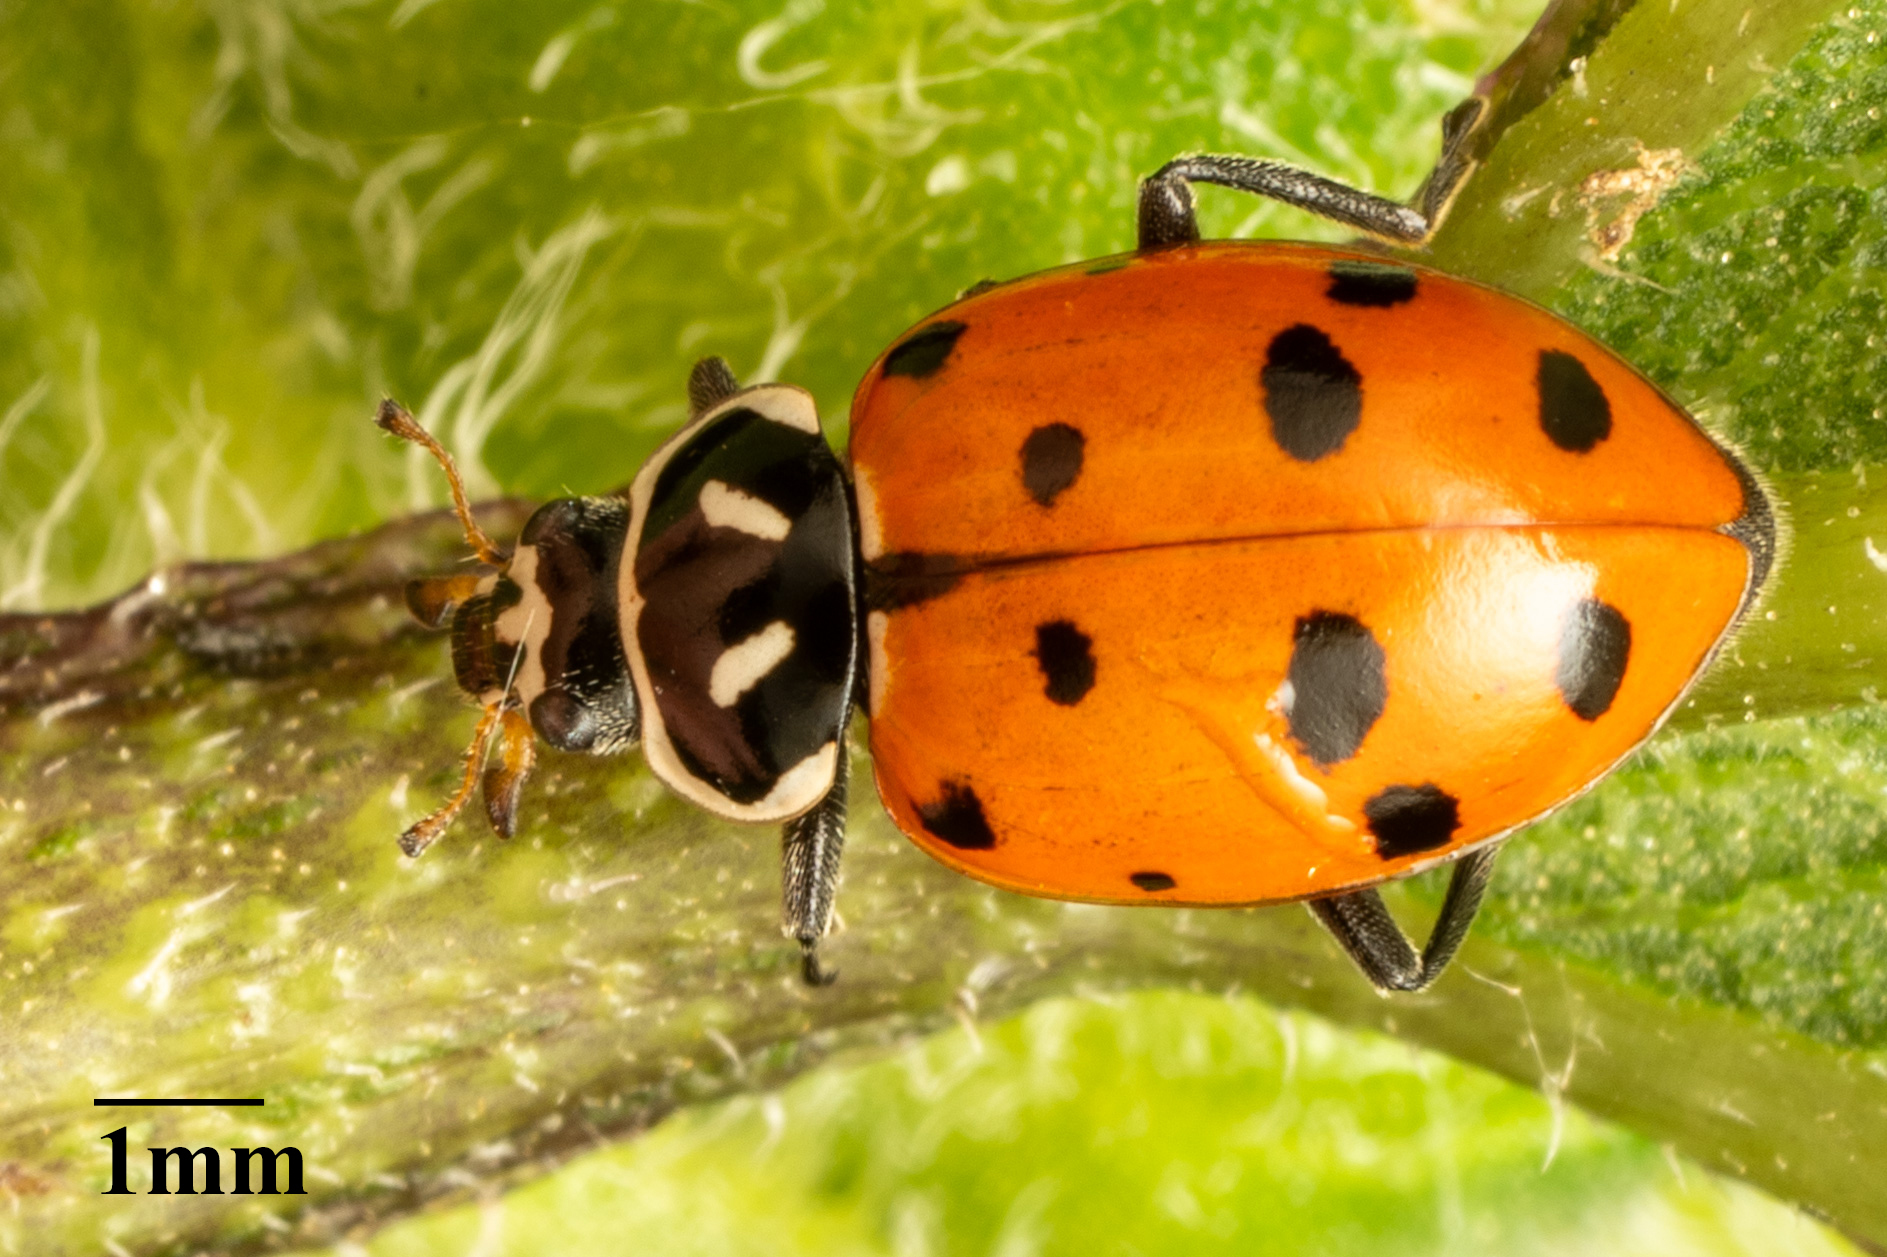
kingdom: Animalia
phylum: Arthropoda
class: Insecta
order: Coleoptera
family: Coccinellidae
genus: Hippodamia
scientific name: Hippodamia convergens
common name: Convergent lady beetle
